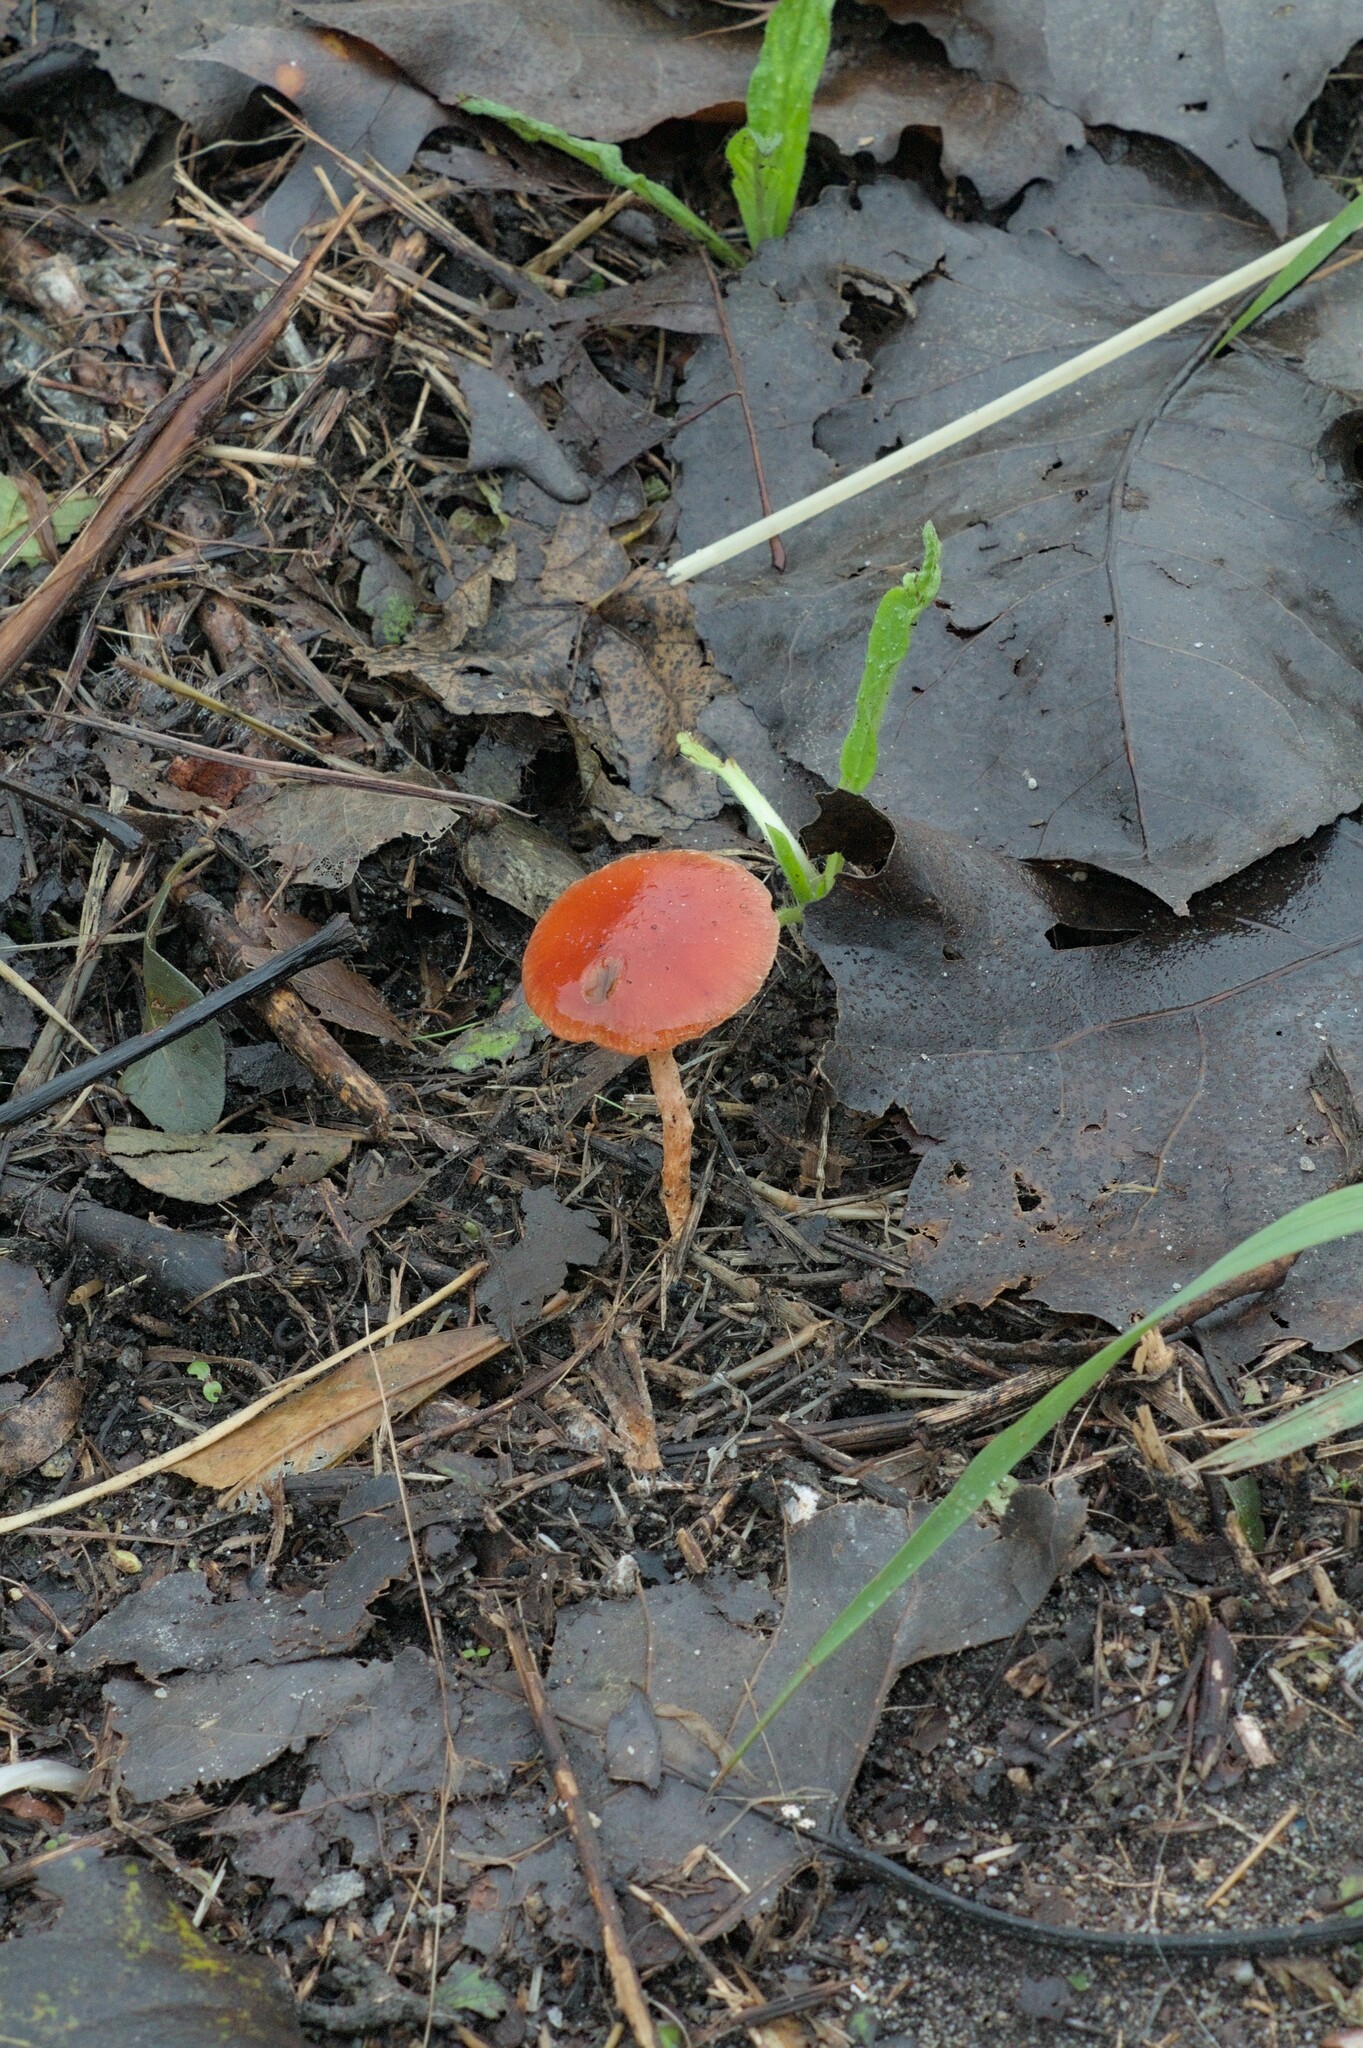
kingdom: Fungi
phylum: Basidiomycota
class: Agaricomycetes
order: Agaricales
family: Strophariaceae
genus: Leratiomyces
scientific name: Leratiomyces ceres
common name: Redlead roundhead
